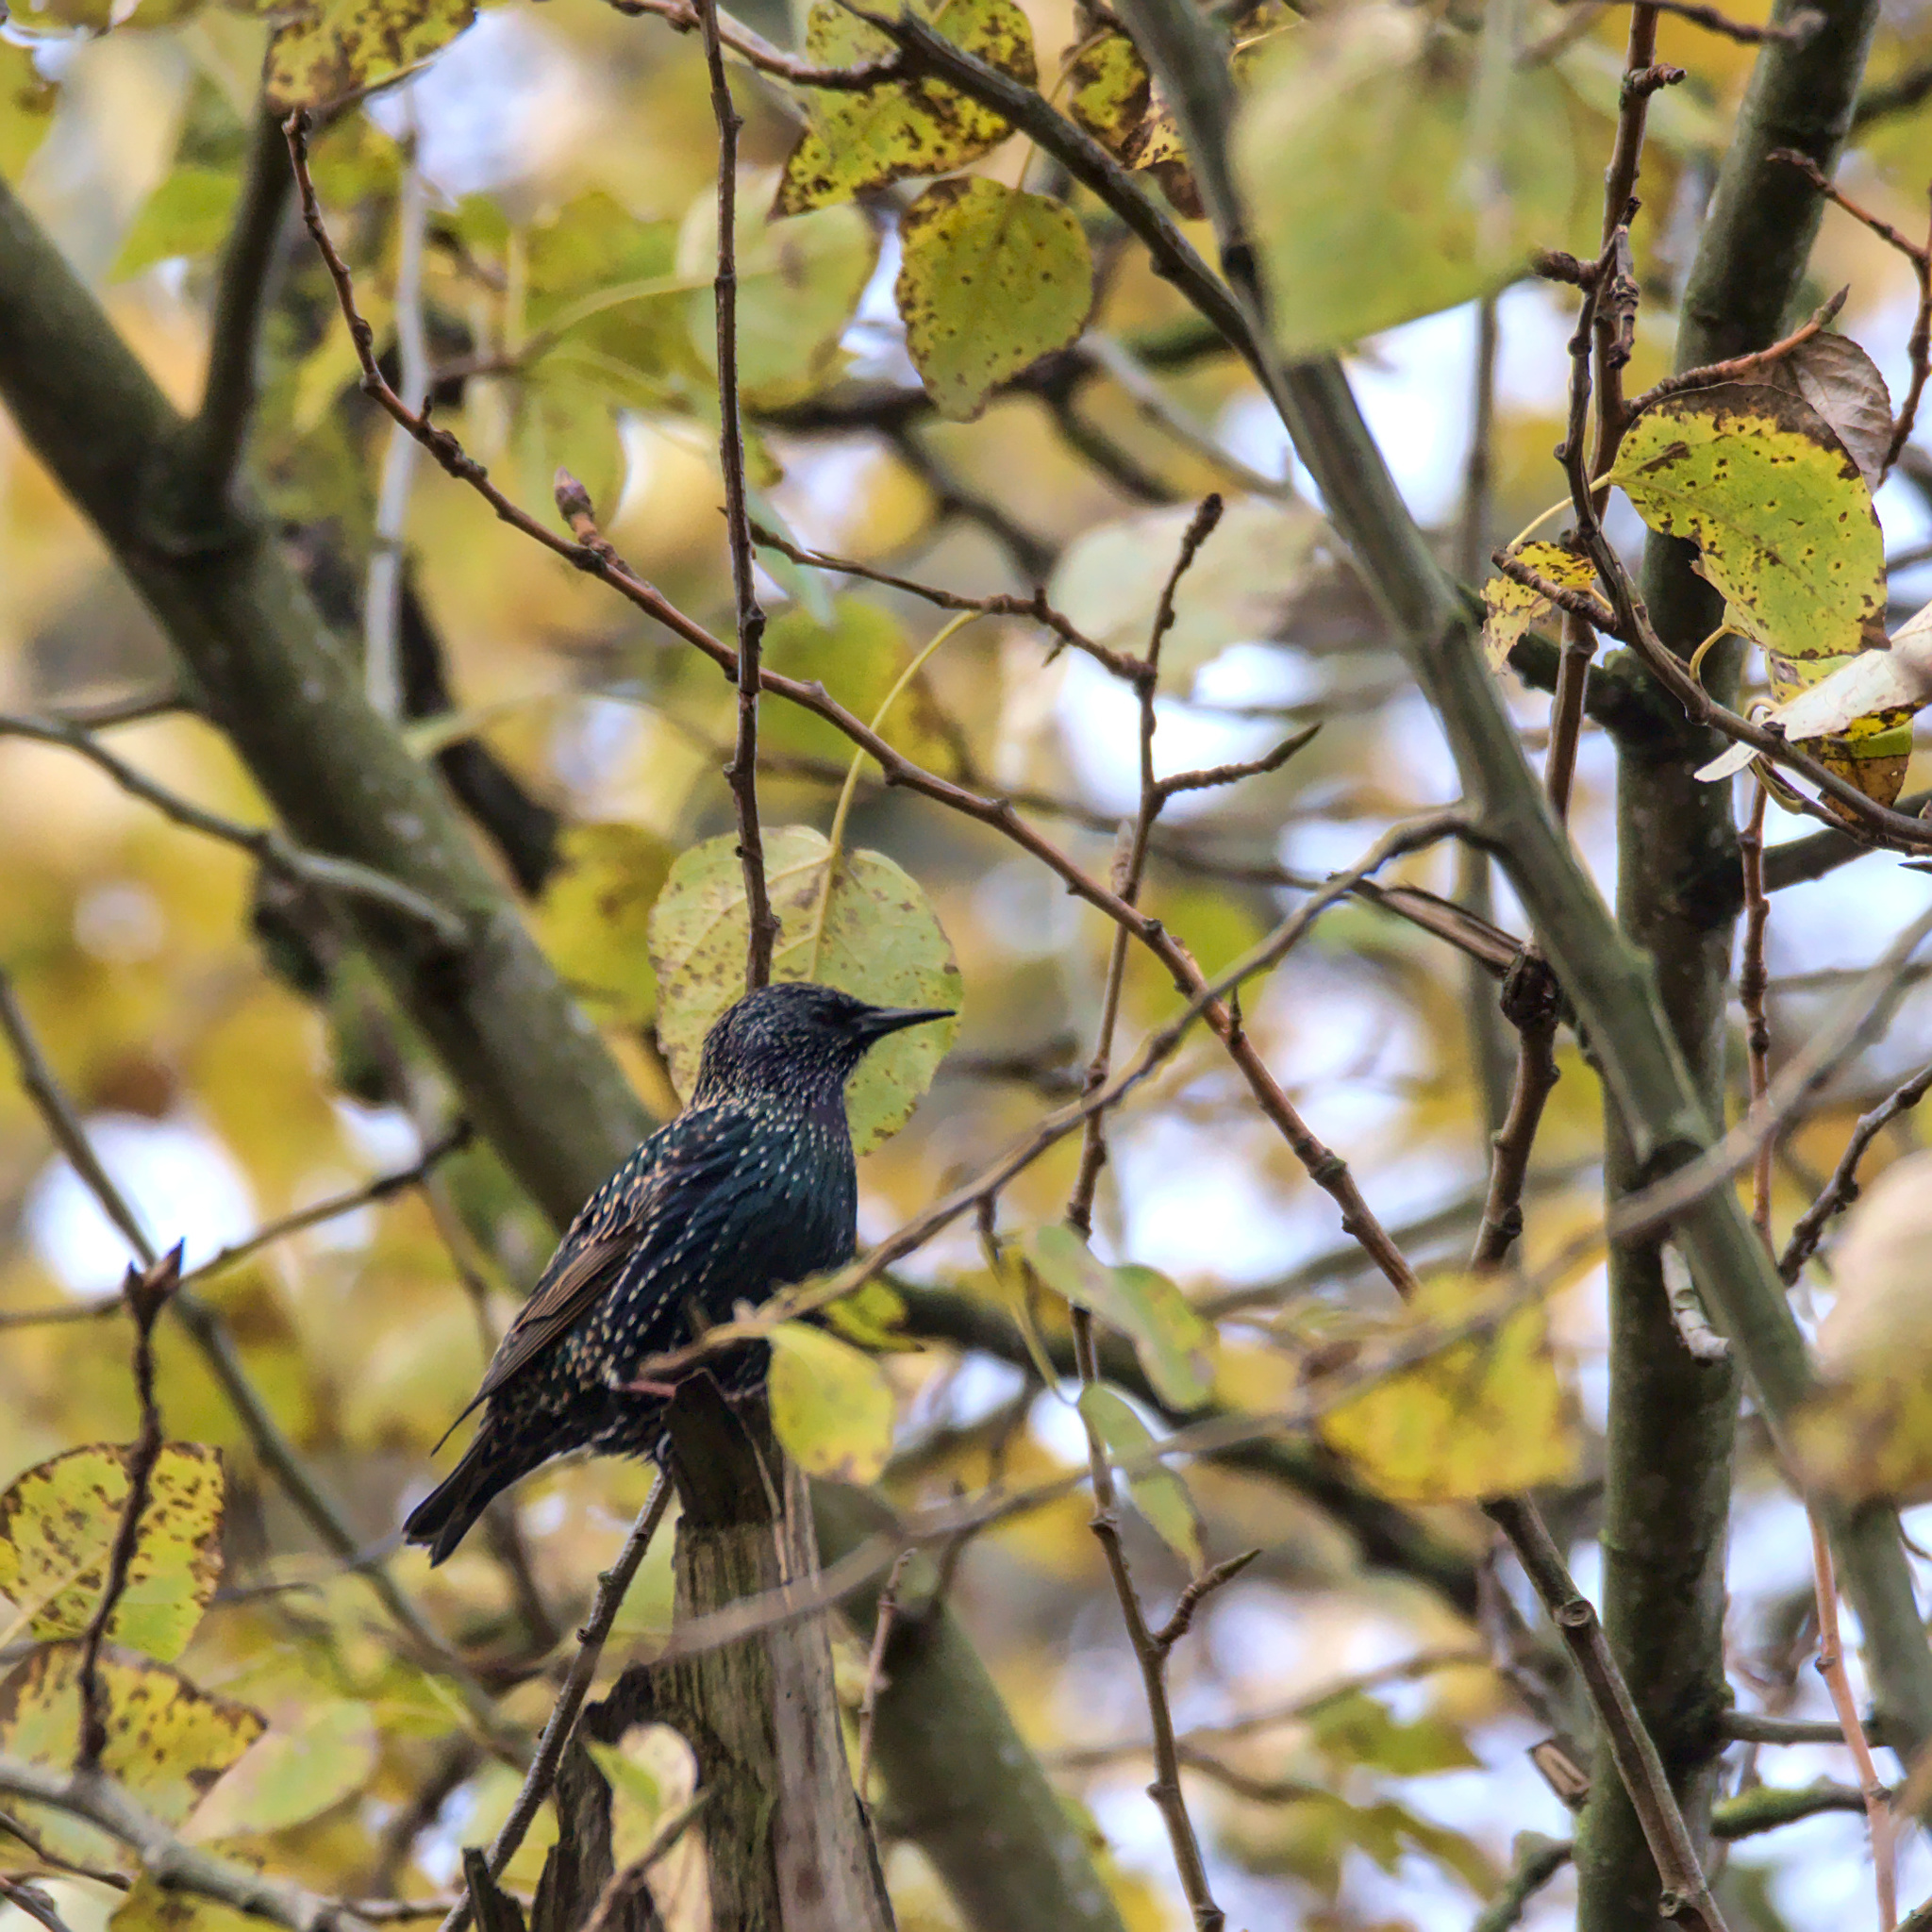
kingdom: Animalia
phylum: Chordata
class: Aves
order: Passeriformes
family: Sturnidae
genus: Sturnus
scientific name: Sturnus vulgaris
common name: Common starling
